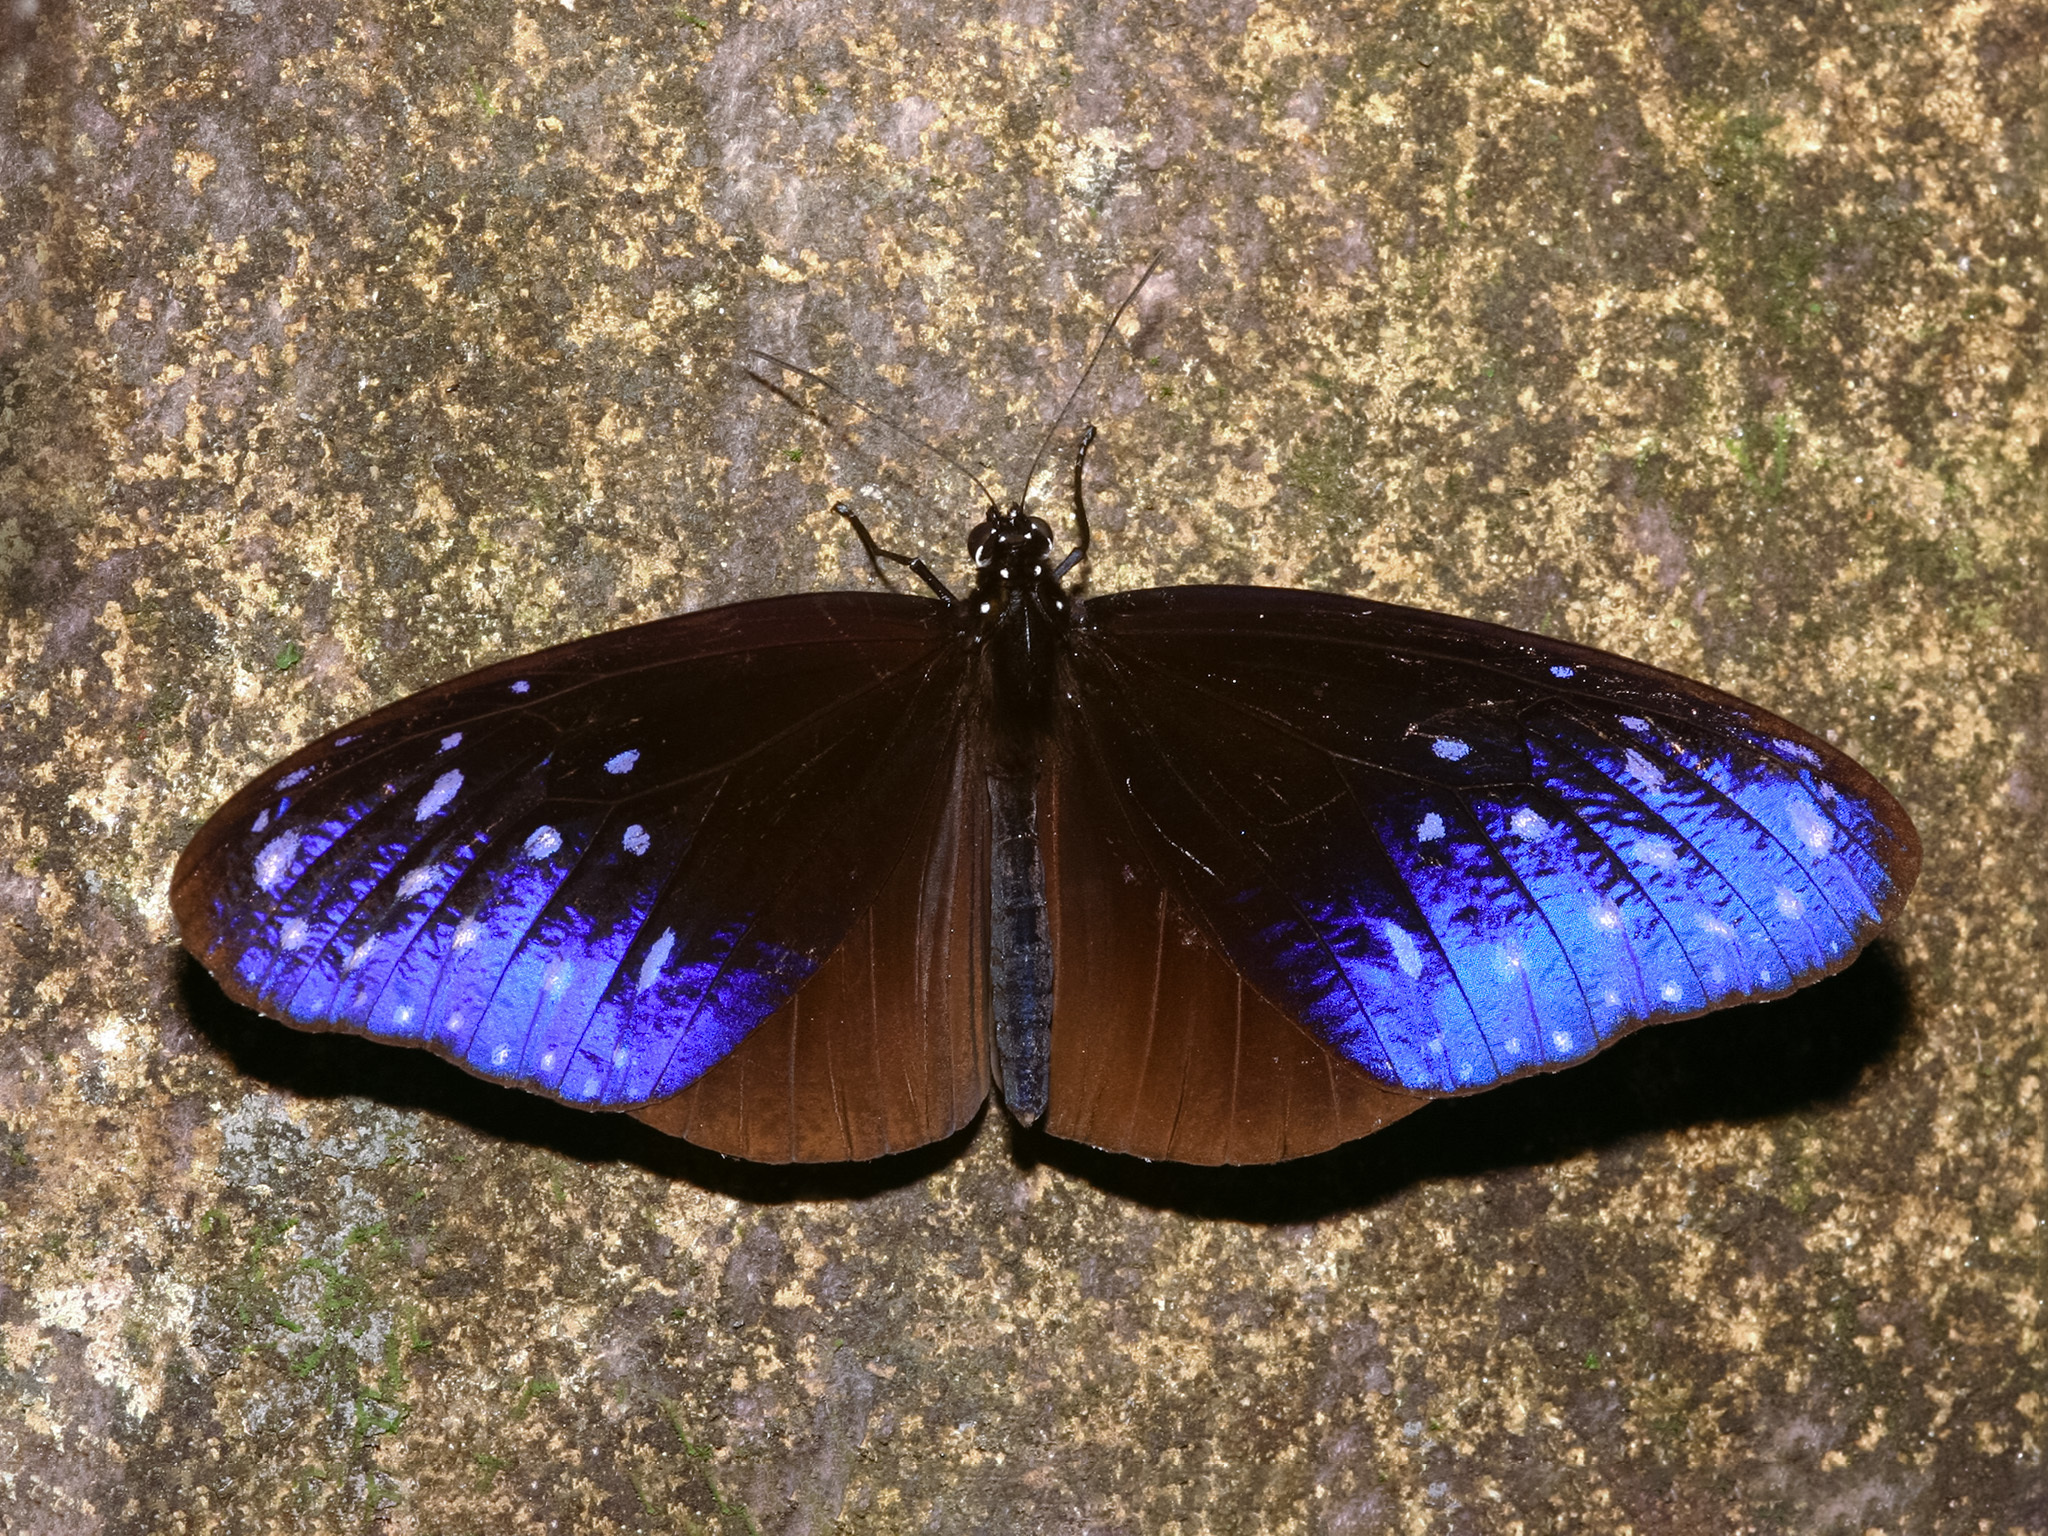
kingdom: Animalia
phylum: Arthropoda
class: Insecta
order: Lepidoptera
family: Nymphalidae
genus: Euploea
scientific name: Euploea mulciber
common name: Striped blue crow butterfly
